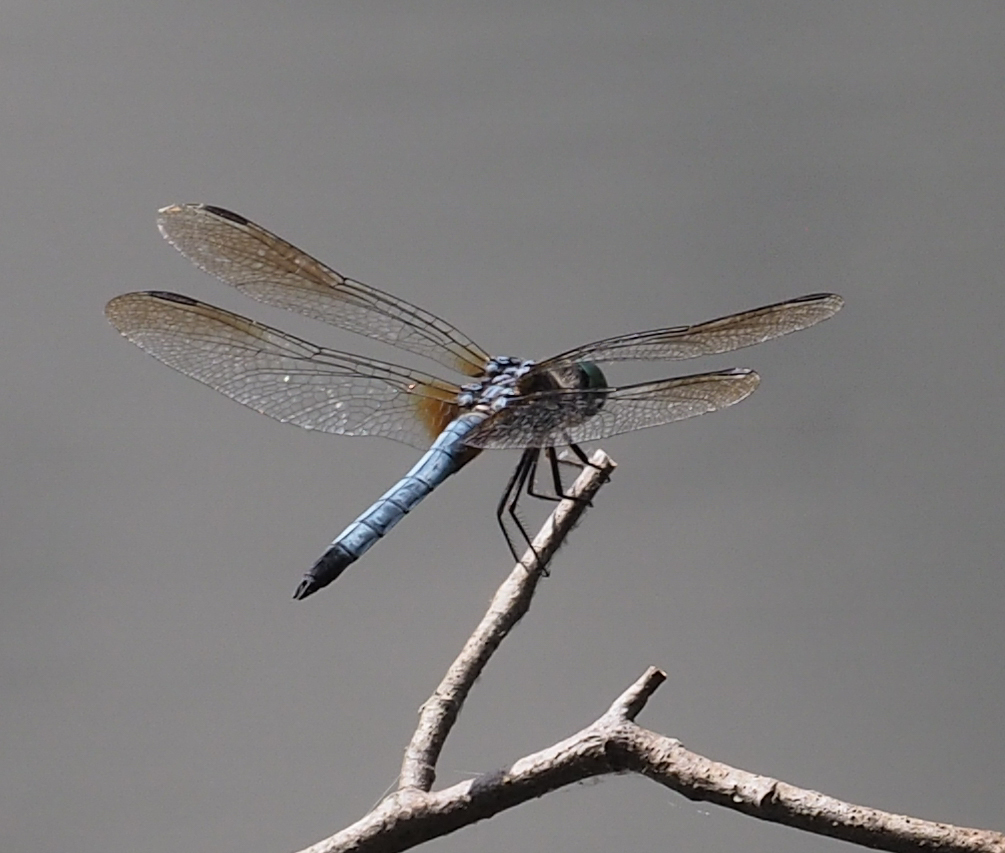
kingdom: Animalia
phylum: Arthropoda
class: Insecta
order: Odonata
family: Libellulidae
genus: Pachydiplax
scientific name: Pachydiplax longipennis
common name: Blue dasher
